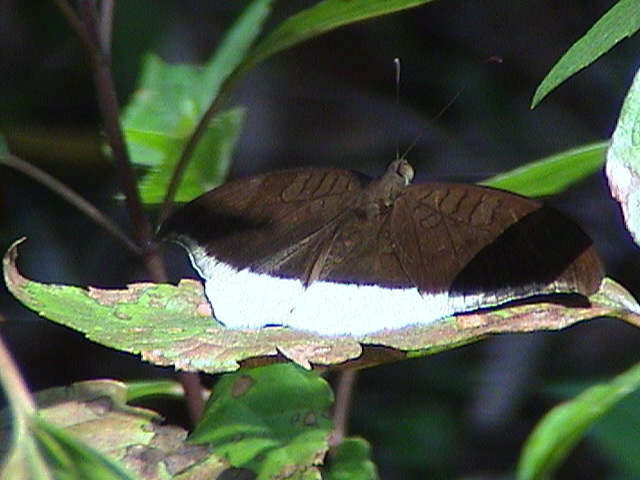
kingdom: Animalia
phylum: Arthropoda
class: Insecta
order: Lepidoptera
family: Nymphalidae
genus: Tanaecia
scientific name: Tanaecia lepidea
